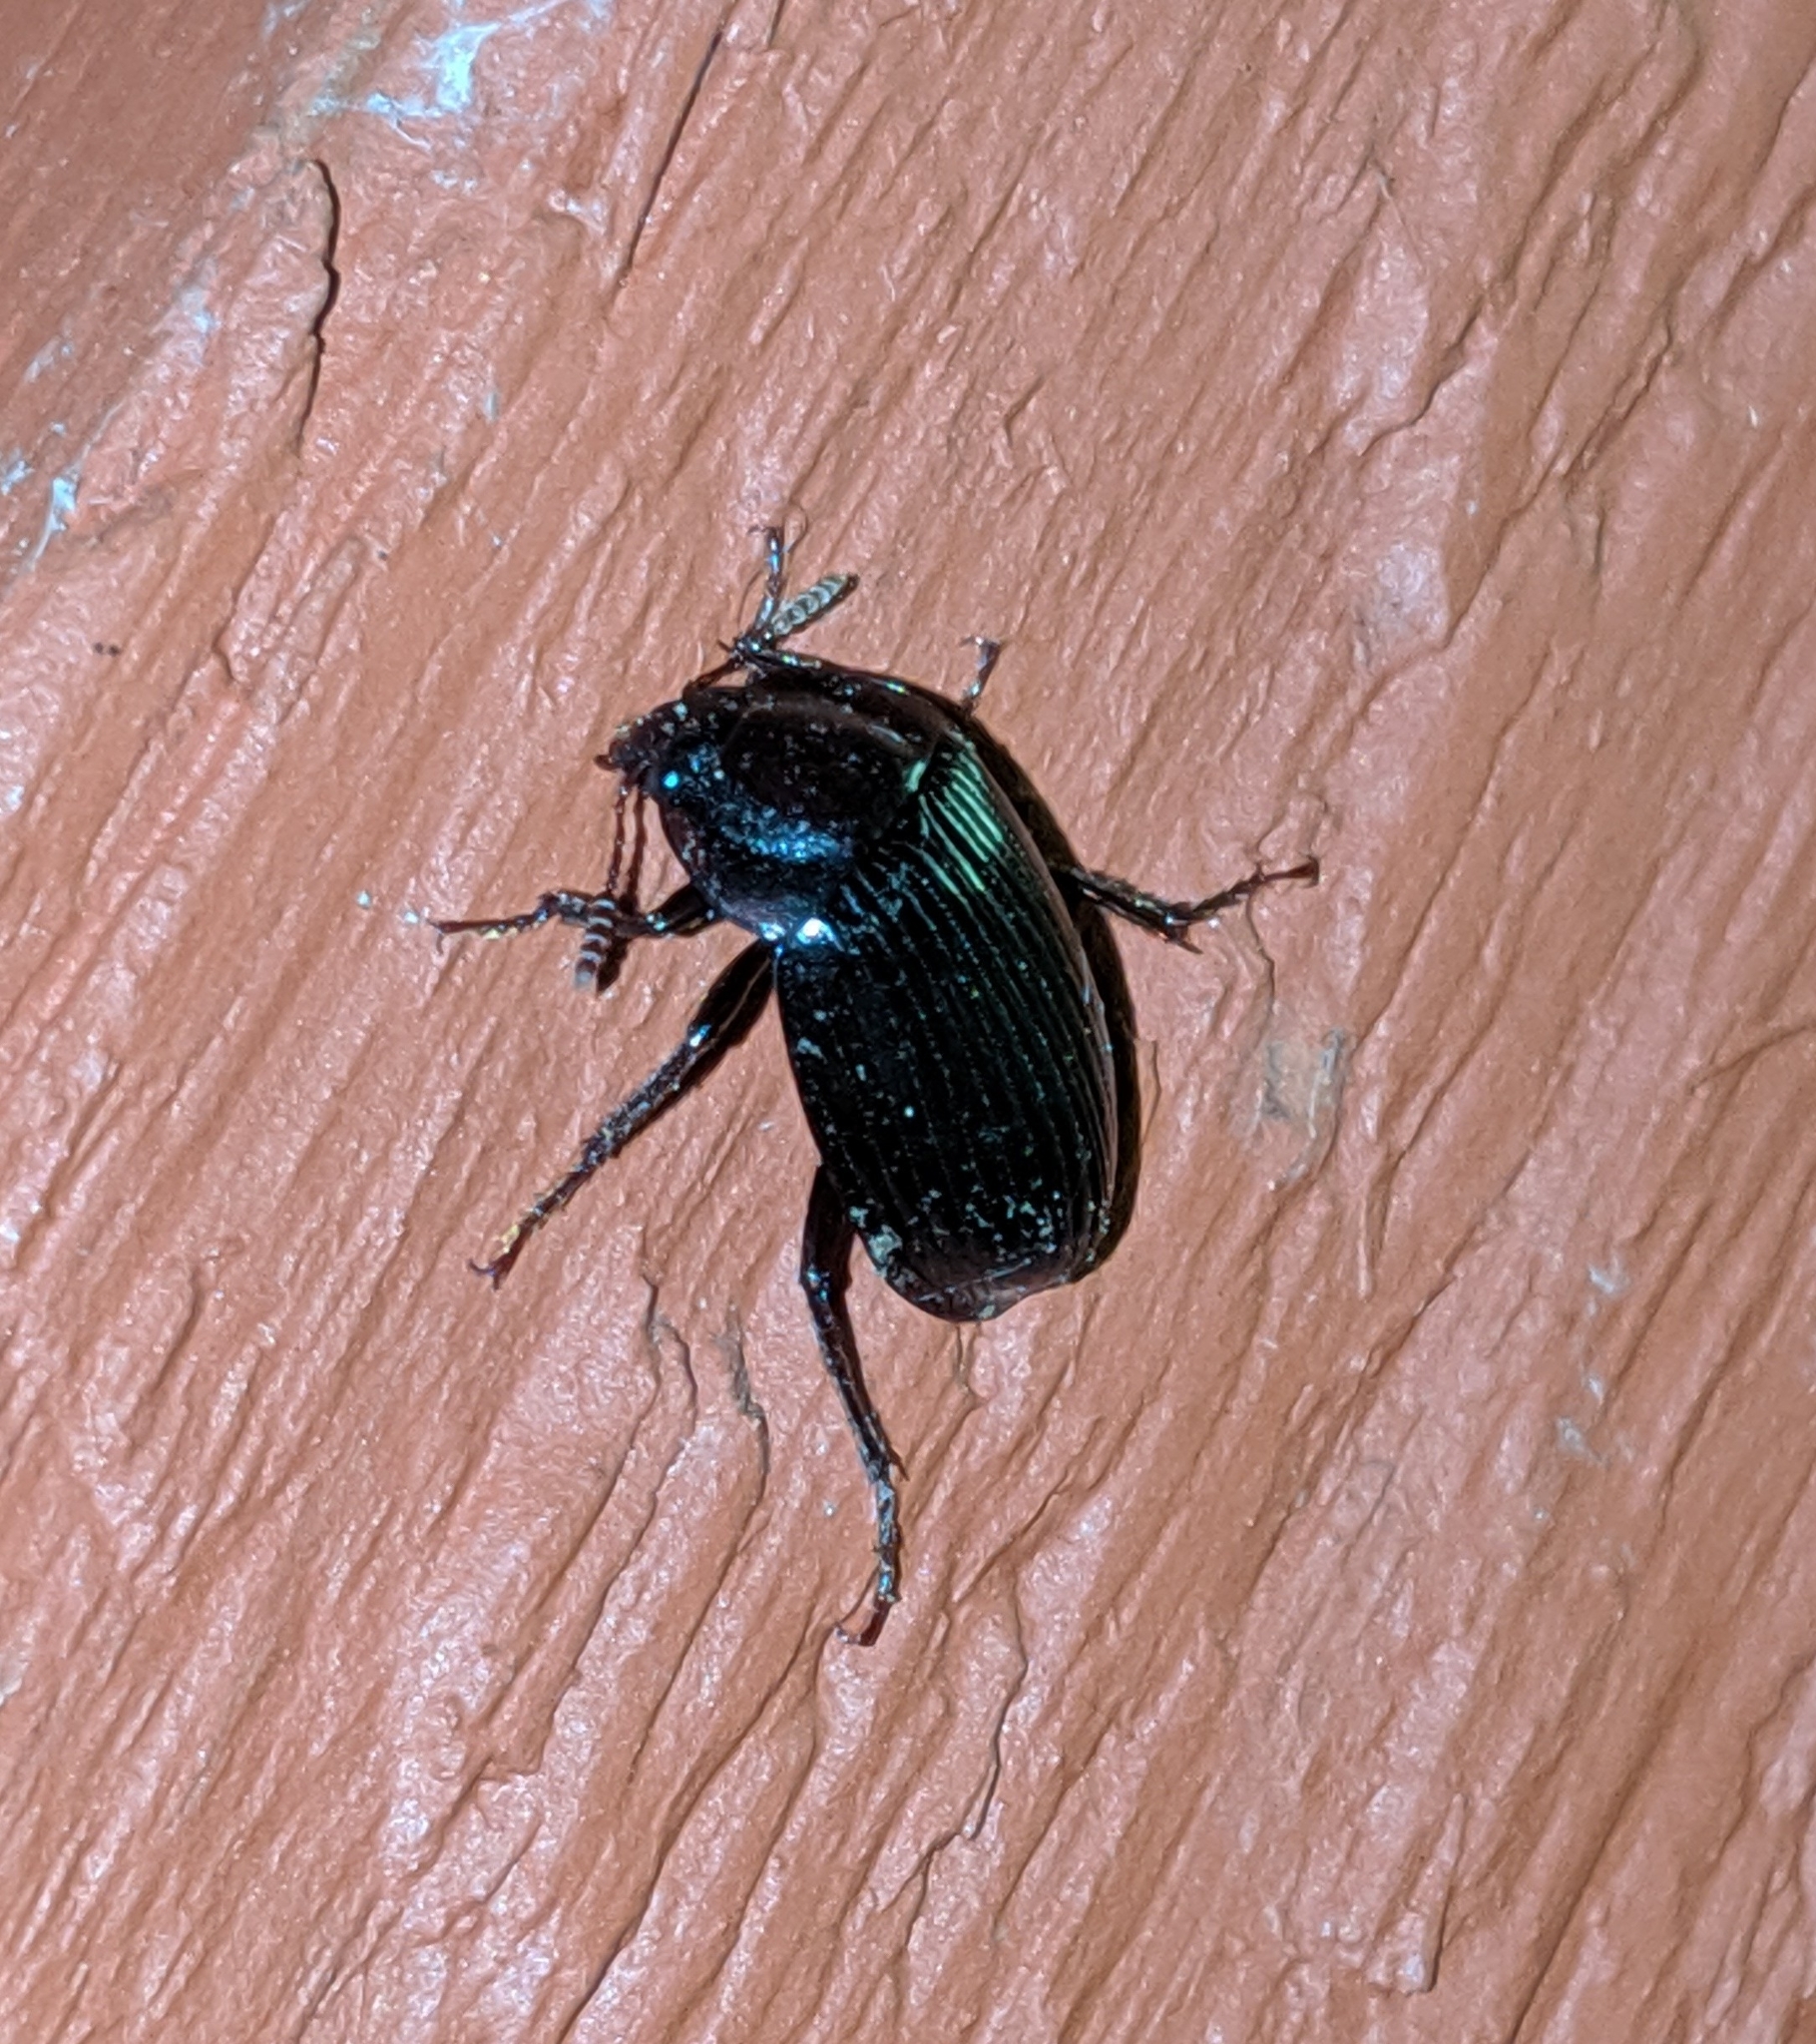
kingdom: Animalia
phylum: Arthropoda
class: Insecta
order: Coleoptera
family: Agyrtidae
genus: Necrophilus
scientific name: Necrophilus hydrophiloides
